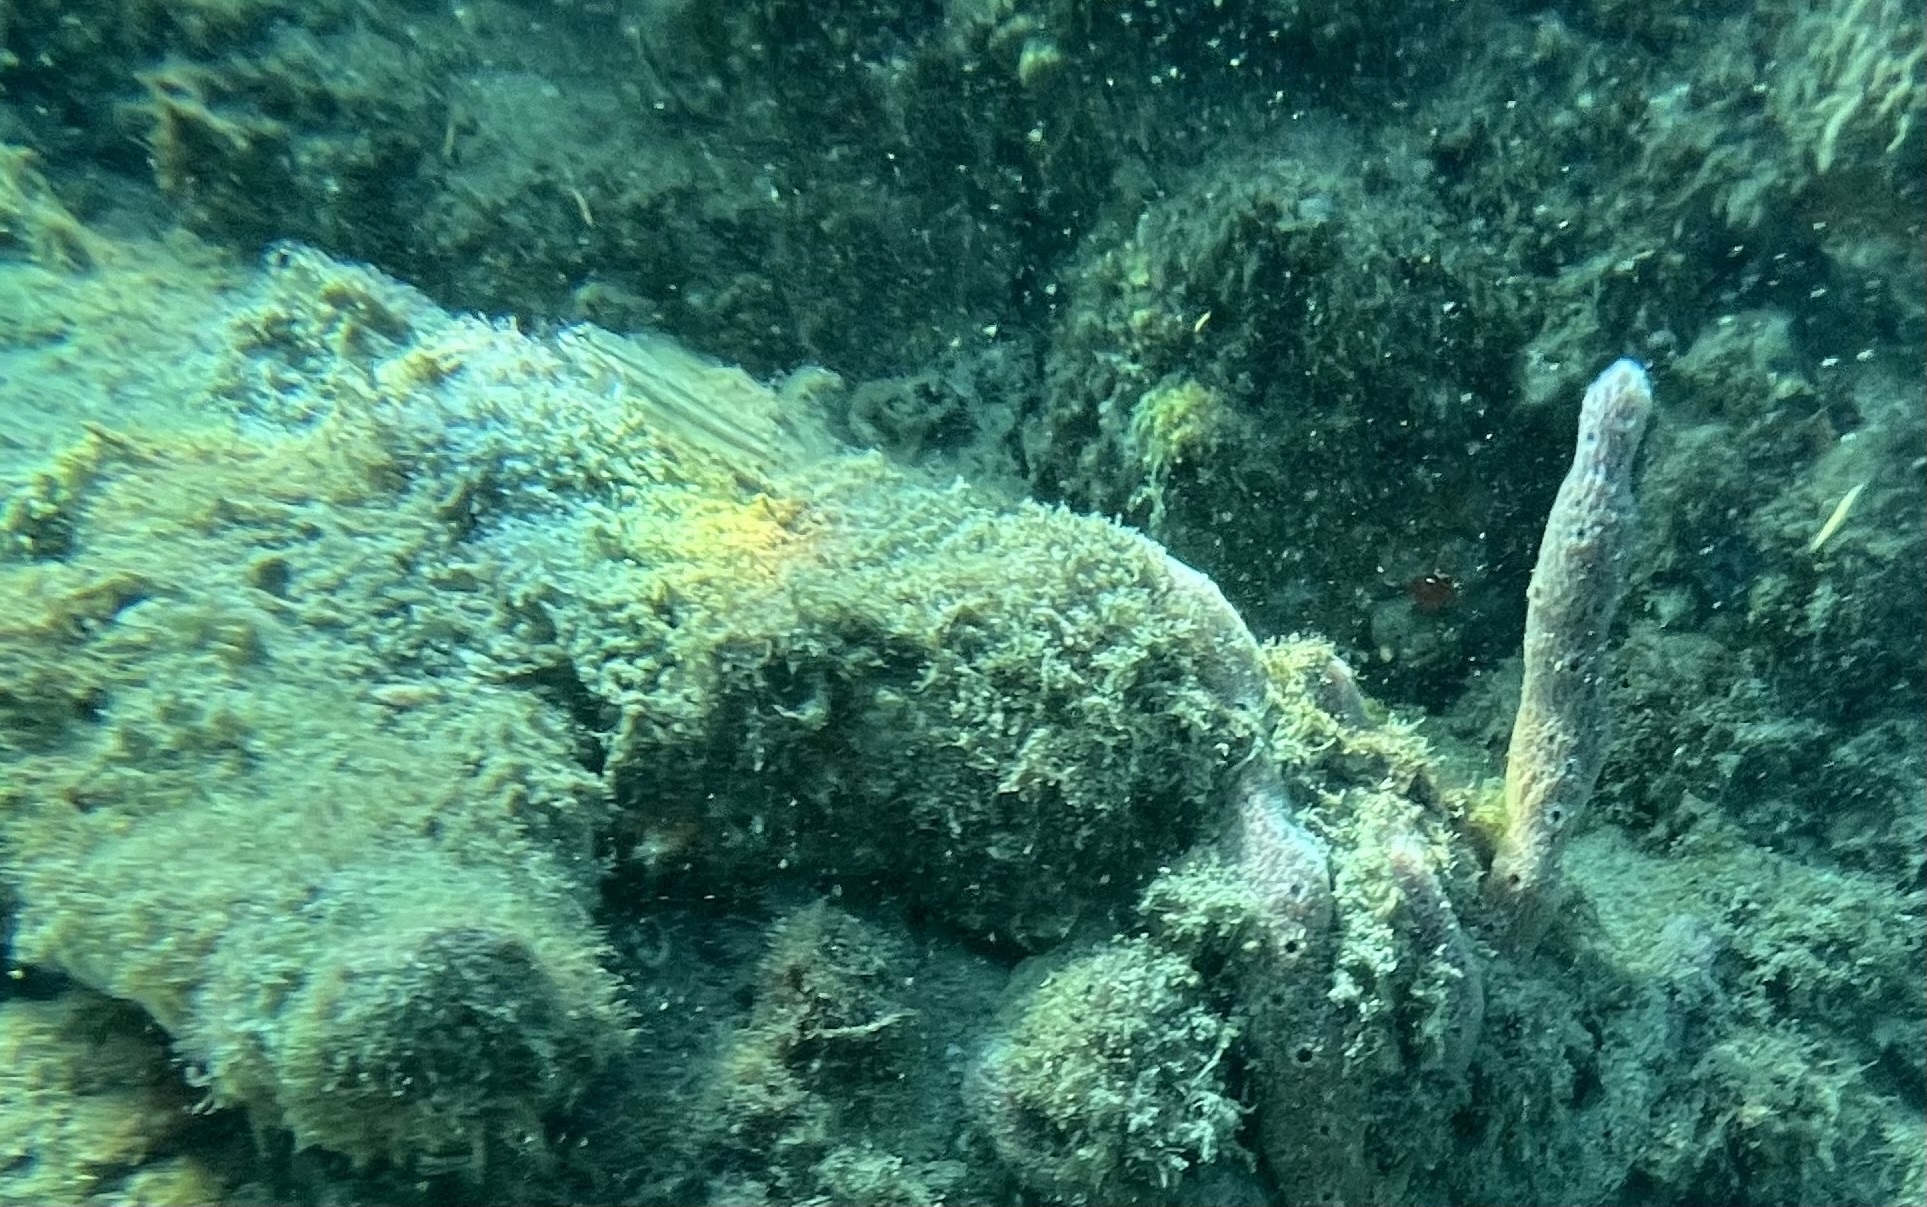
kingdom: Animalia
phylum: Chordata
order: Perciformes
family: Gobiidae
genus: Coryphopterus
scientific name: Coryphopterus dicrus
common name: Colon goby
